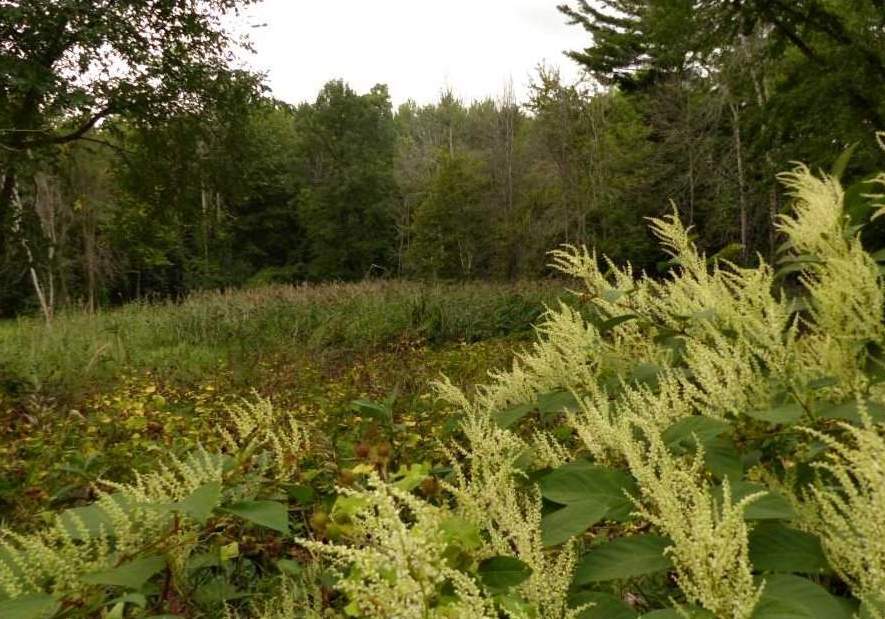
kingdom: Plantae
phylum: Tracheophyta
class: Magnoliopsida
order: Caryophyllales
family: Polygonaceae
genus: Reynoutria
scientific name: Reynoutria japonica
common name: Japanese knotweed
